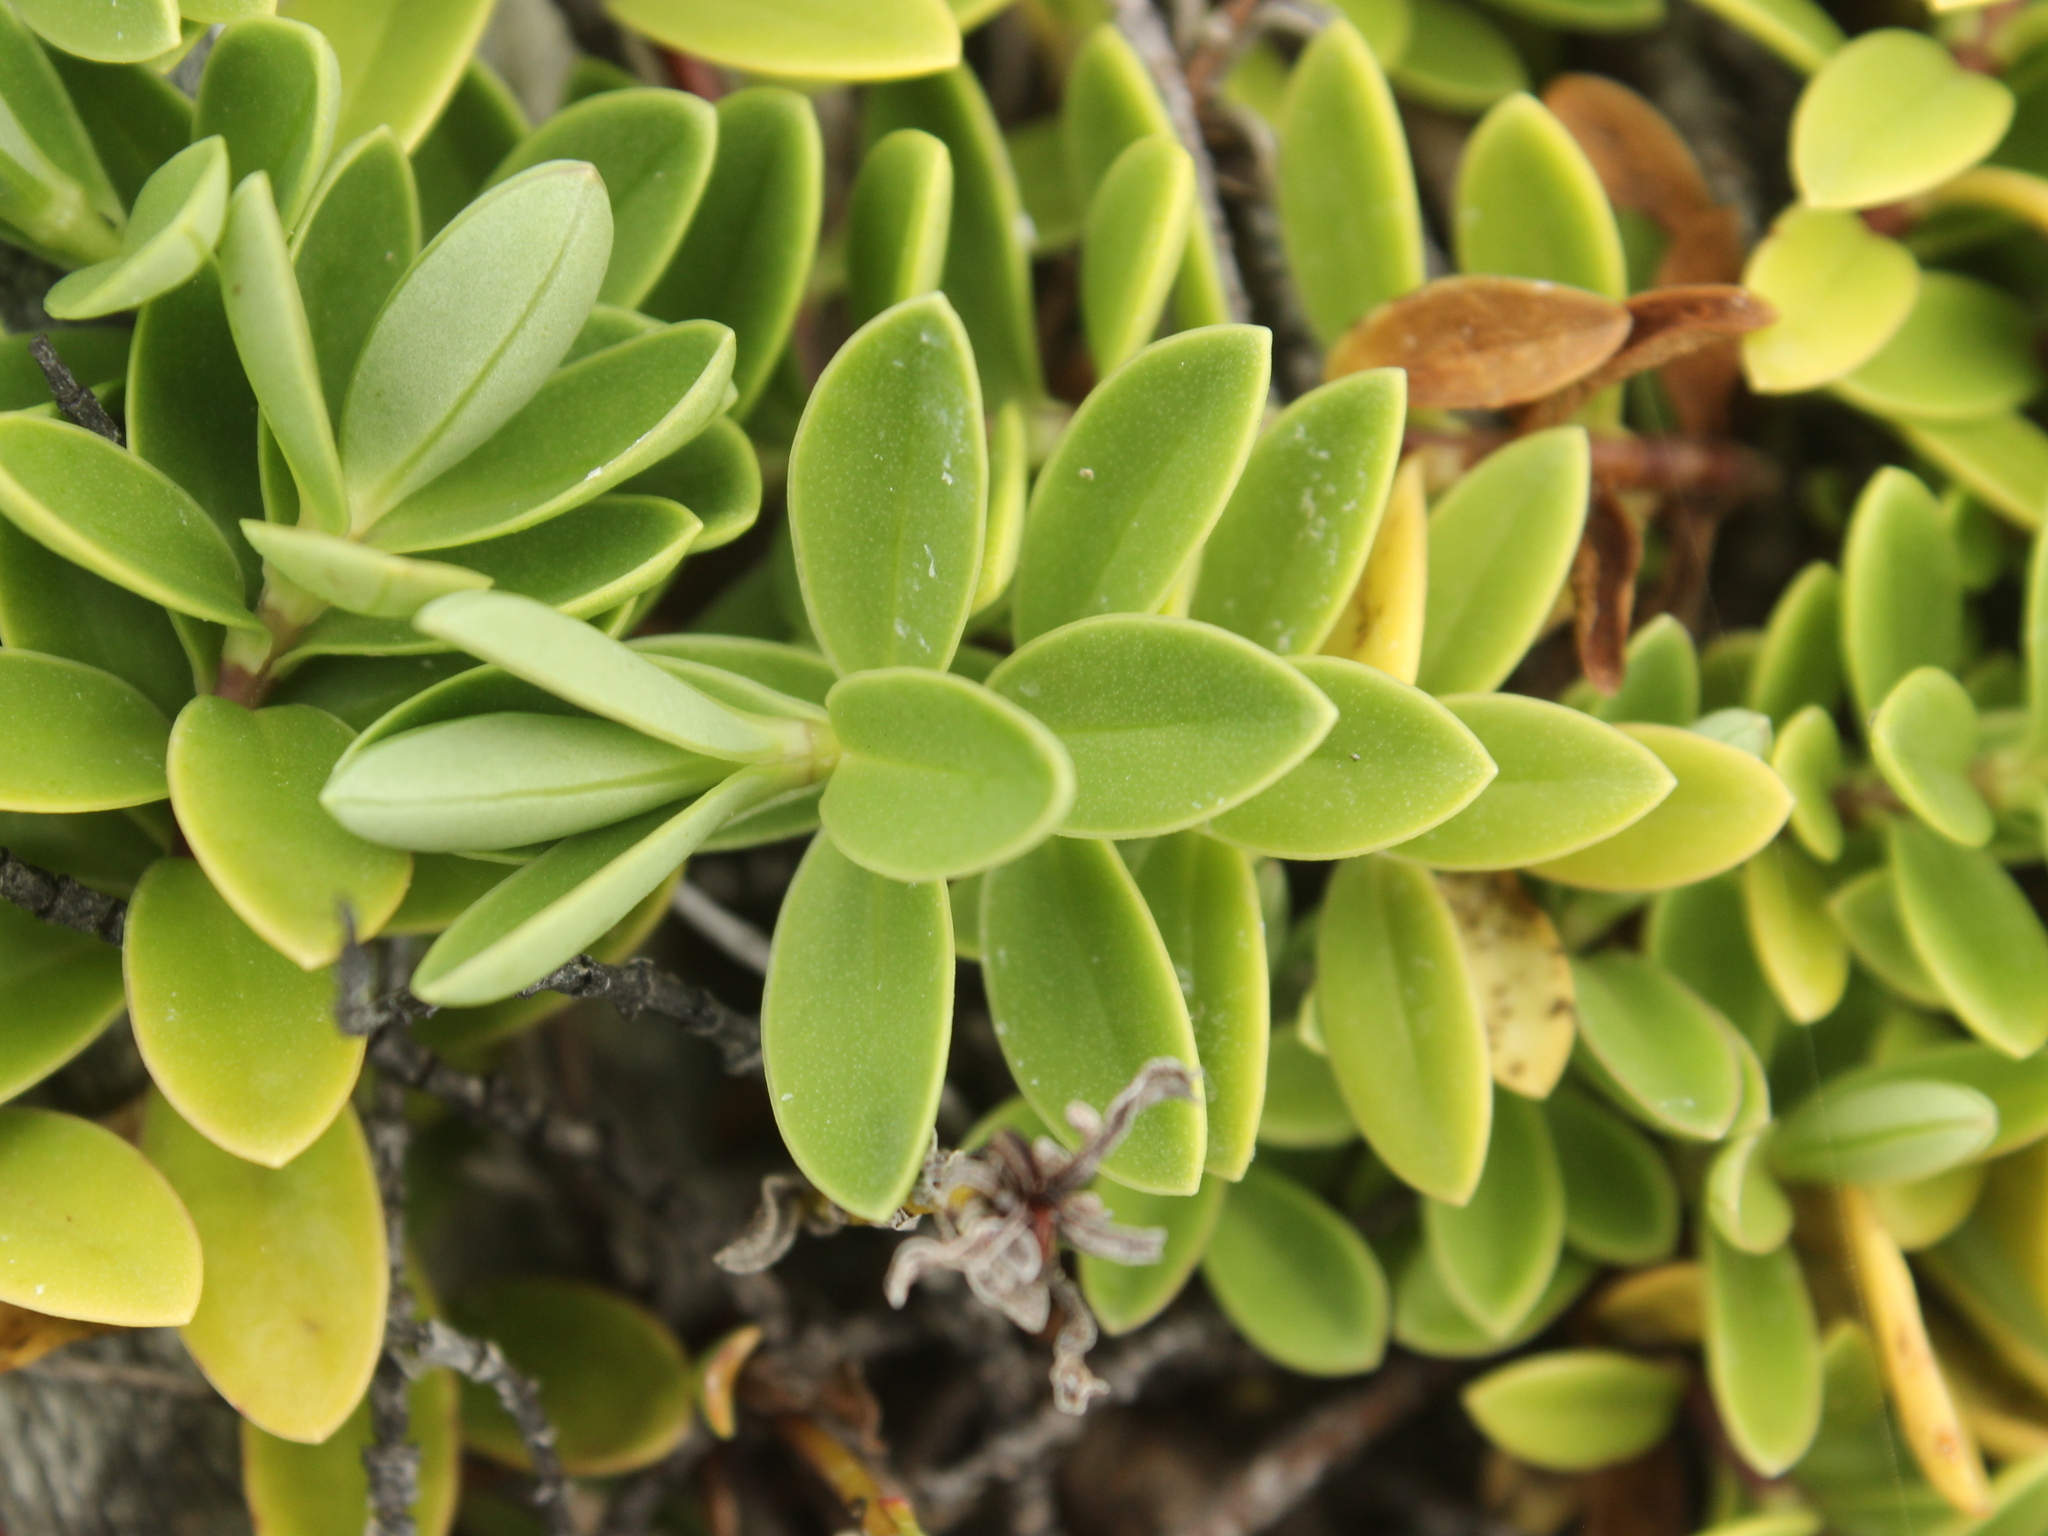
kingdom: Plantae
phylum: Tracheophyta
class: Magnoliopsida
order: Lamiales
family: Plantaginaceae
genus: Veronica
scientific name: Veronica chathamica
